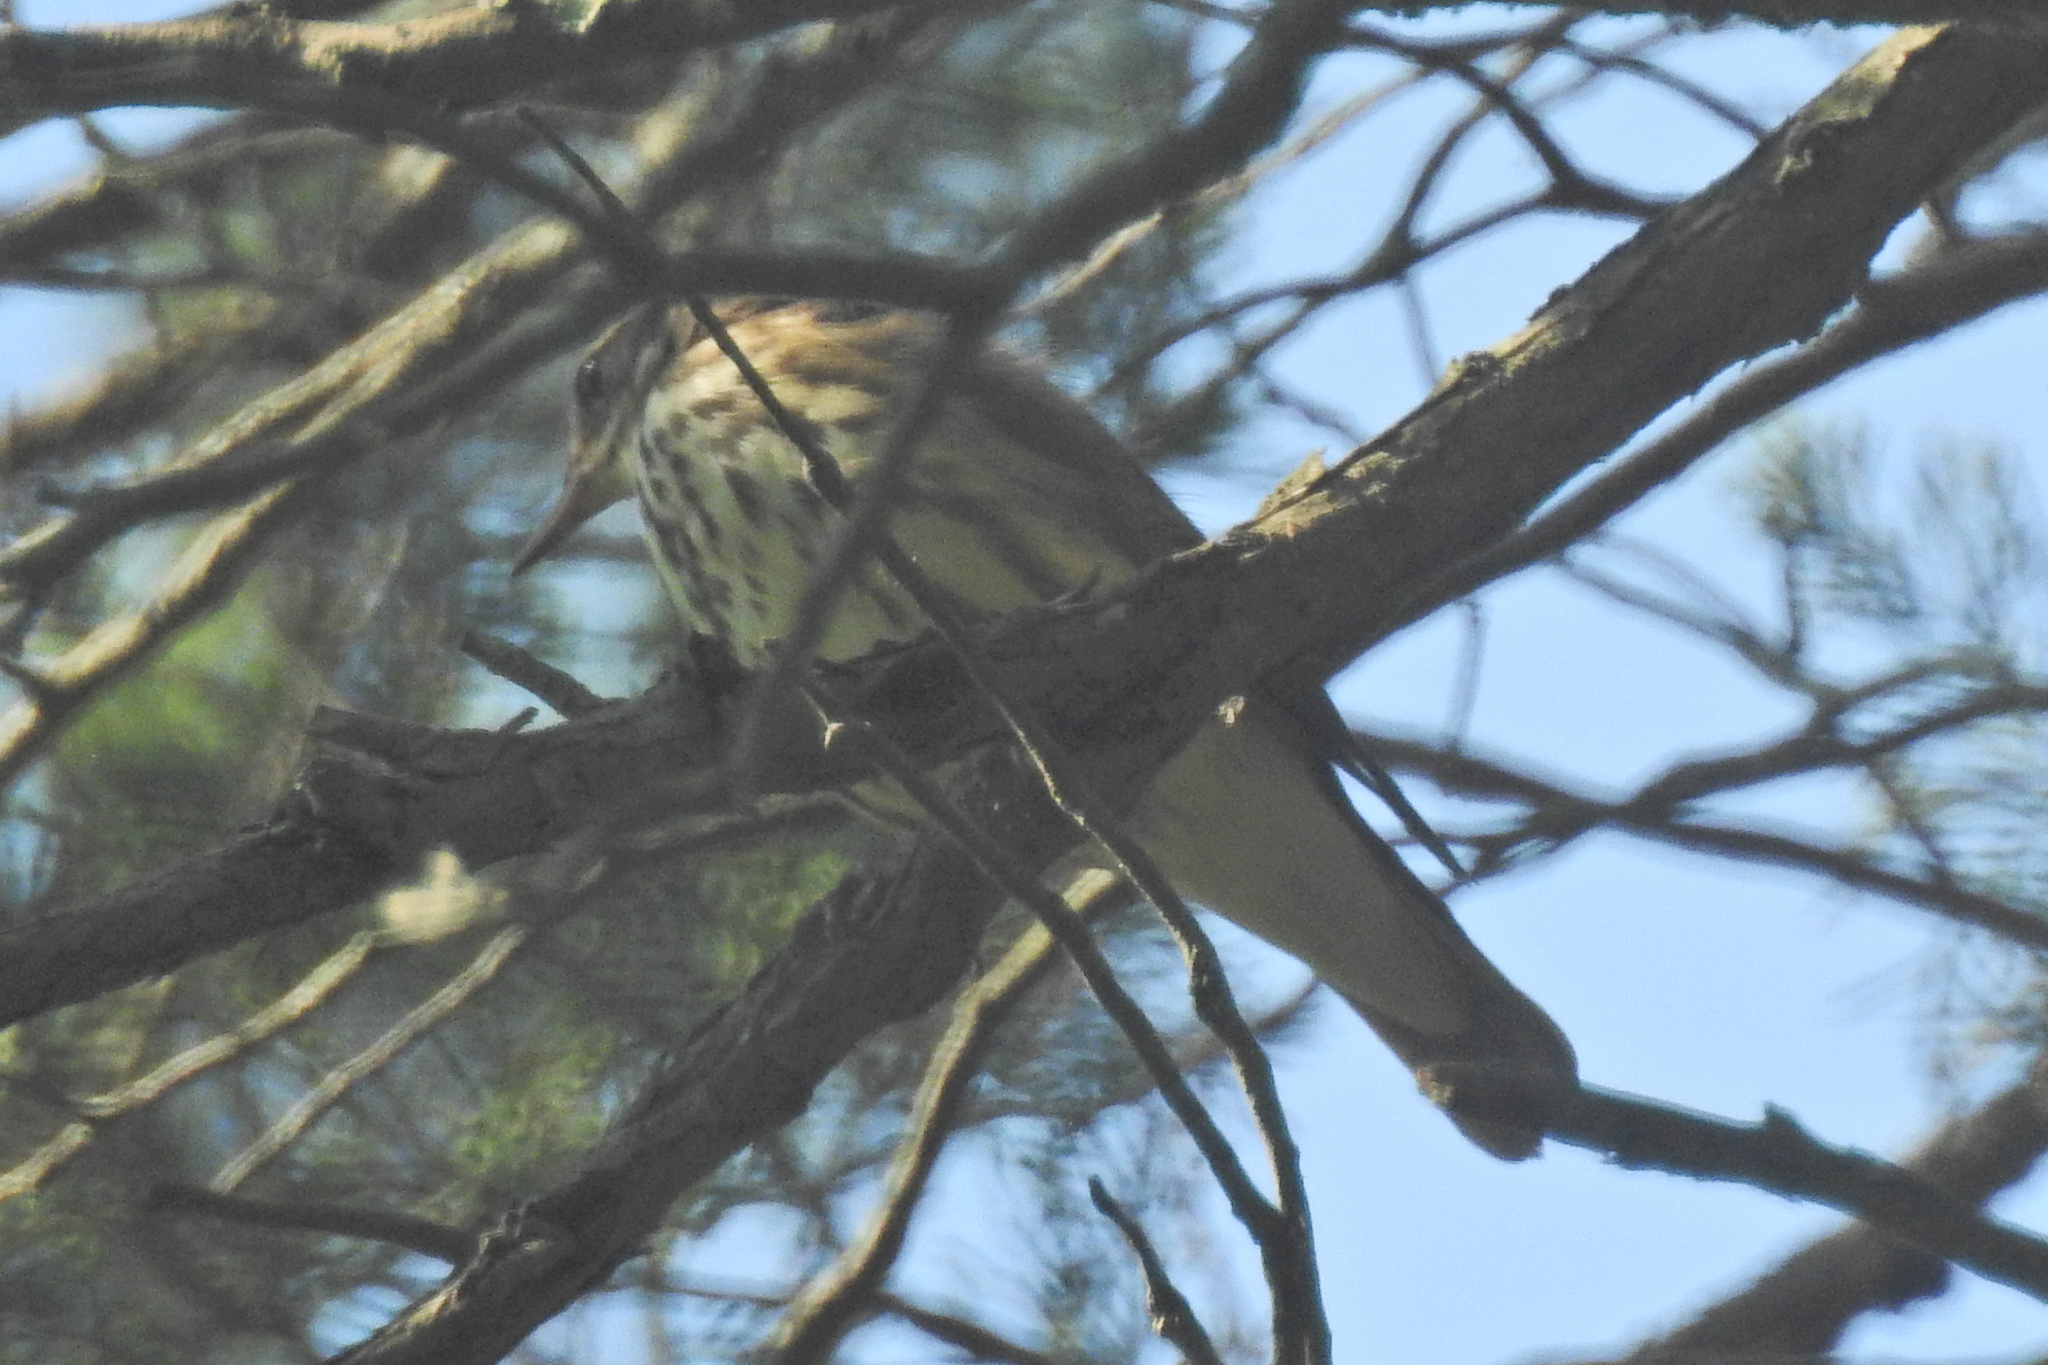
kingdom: Animalia
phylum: Chordata
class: Aves
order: Passeriformes
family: Parulidae
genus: Parkesia
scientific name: Parkesia motacilla
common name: Louisiana waterthrush
